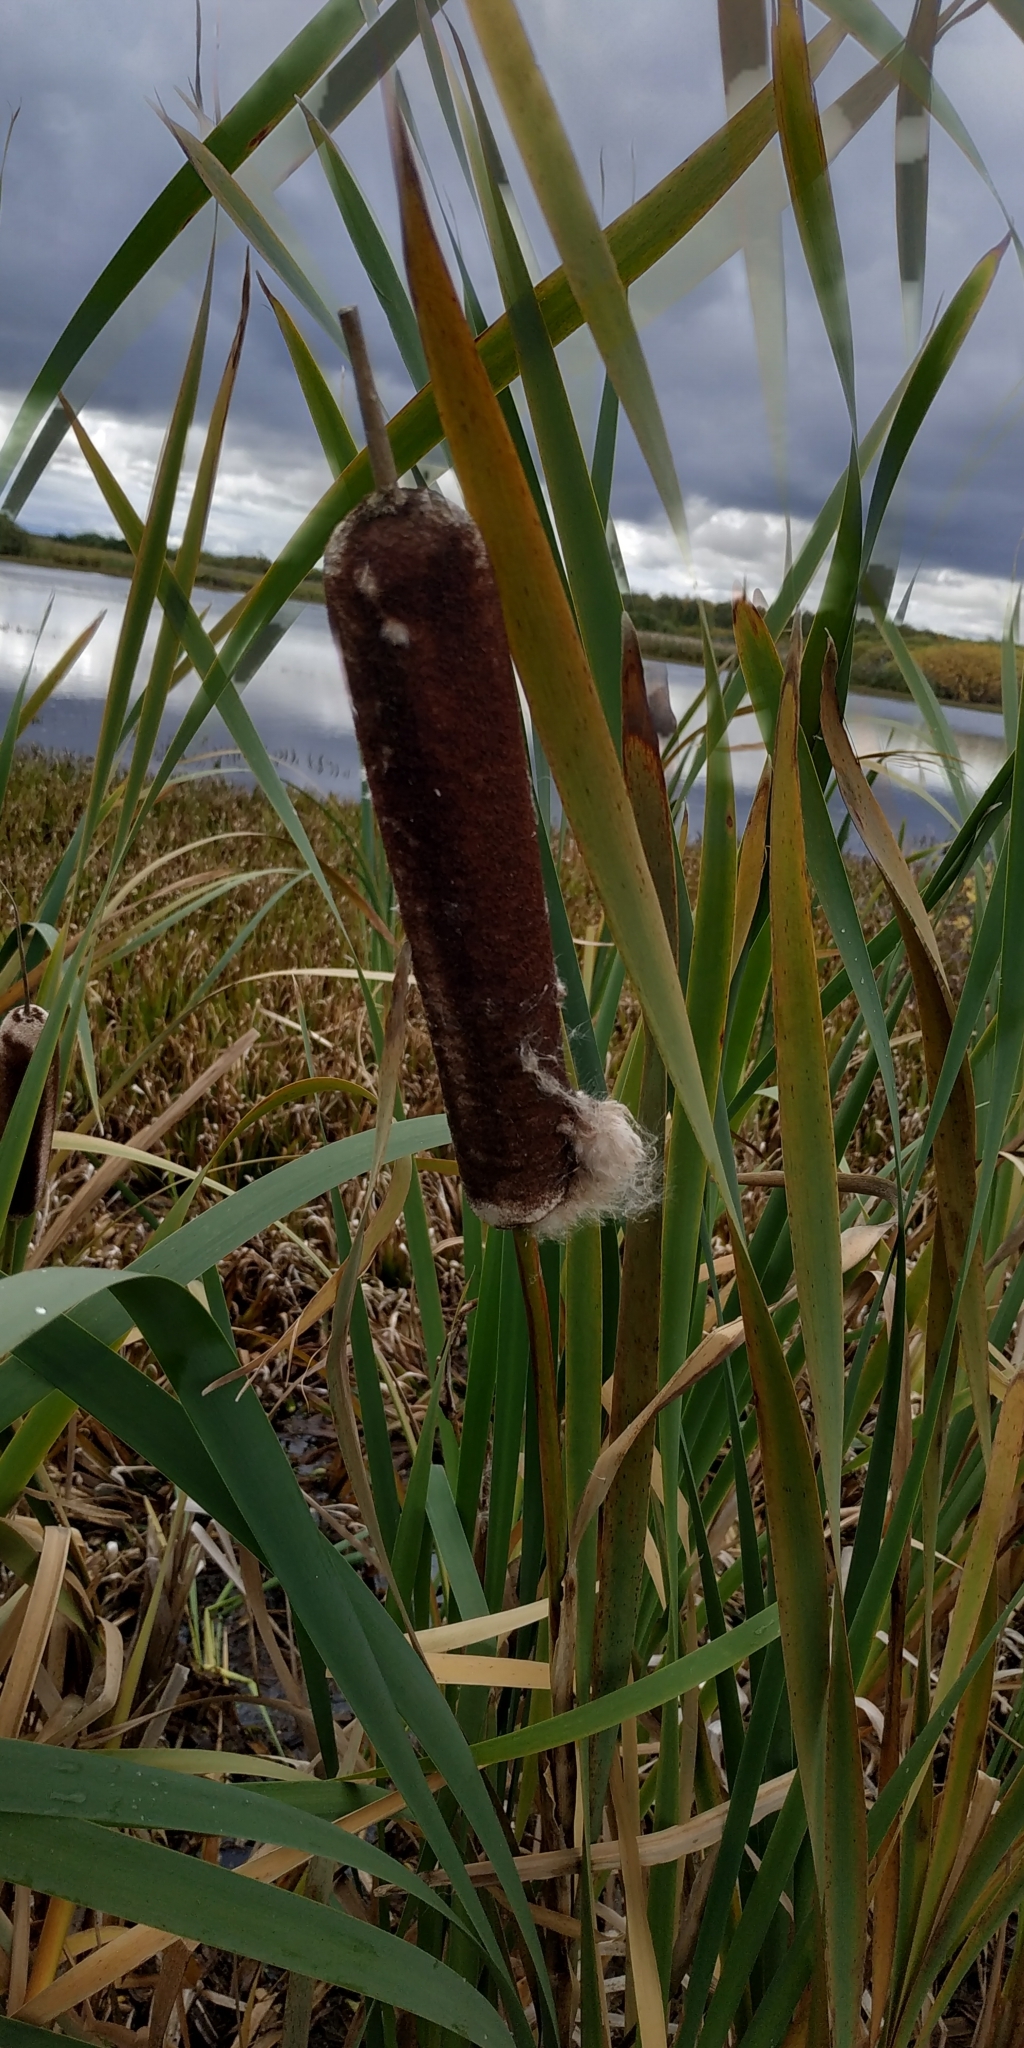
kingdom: Plantae
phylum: Tracheophyta
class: Liliopsida
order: Poales
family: Typhaceae
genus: Typha
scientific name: Typha latifolia
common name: Broadleaf cattail
